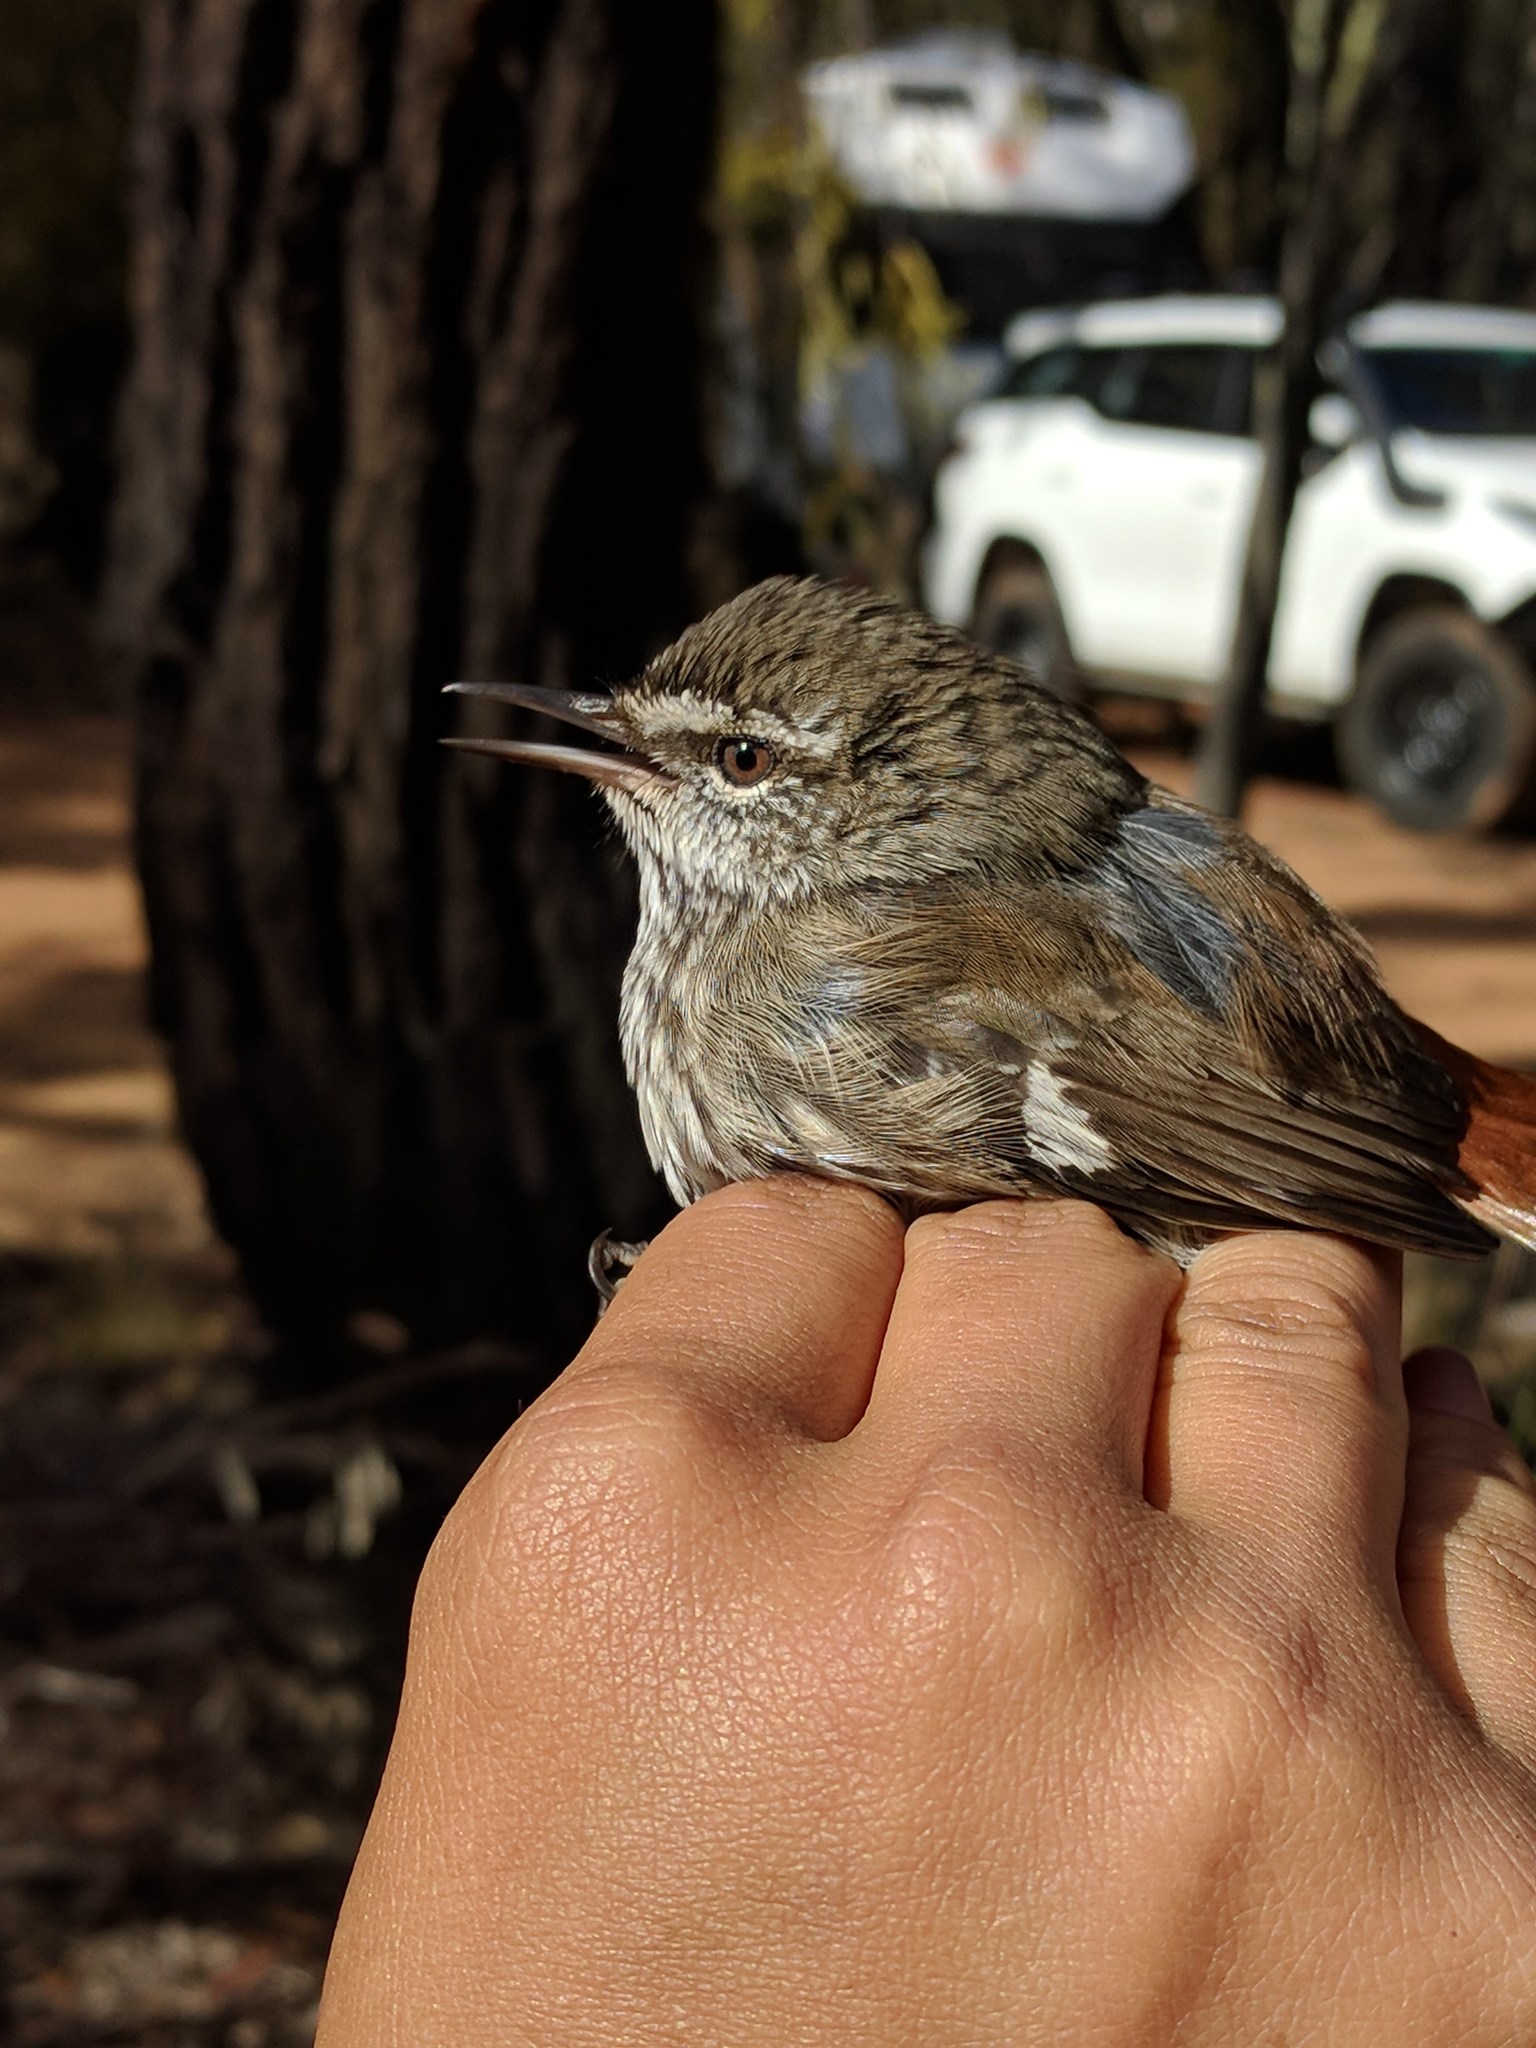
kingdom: Animalia
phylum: Chordata
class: Aves
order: Passeriformes
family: Acanthizidae
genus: Calamanthus
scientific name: Calamanthus cautus
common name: Shy heathwren
